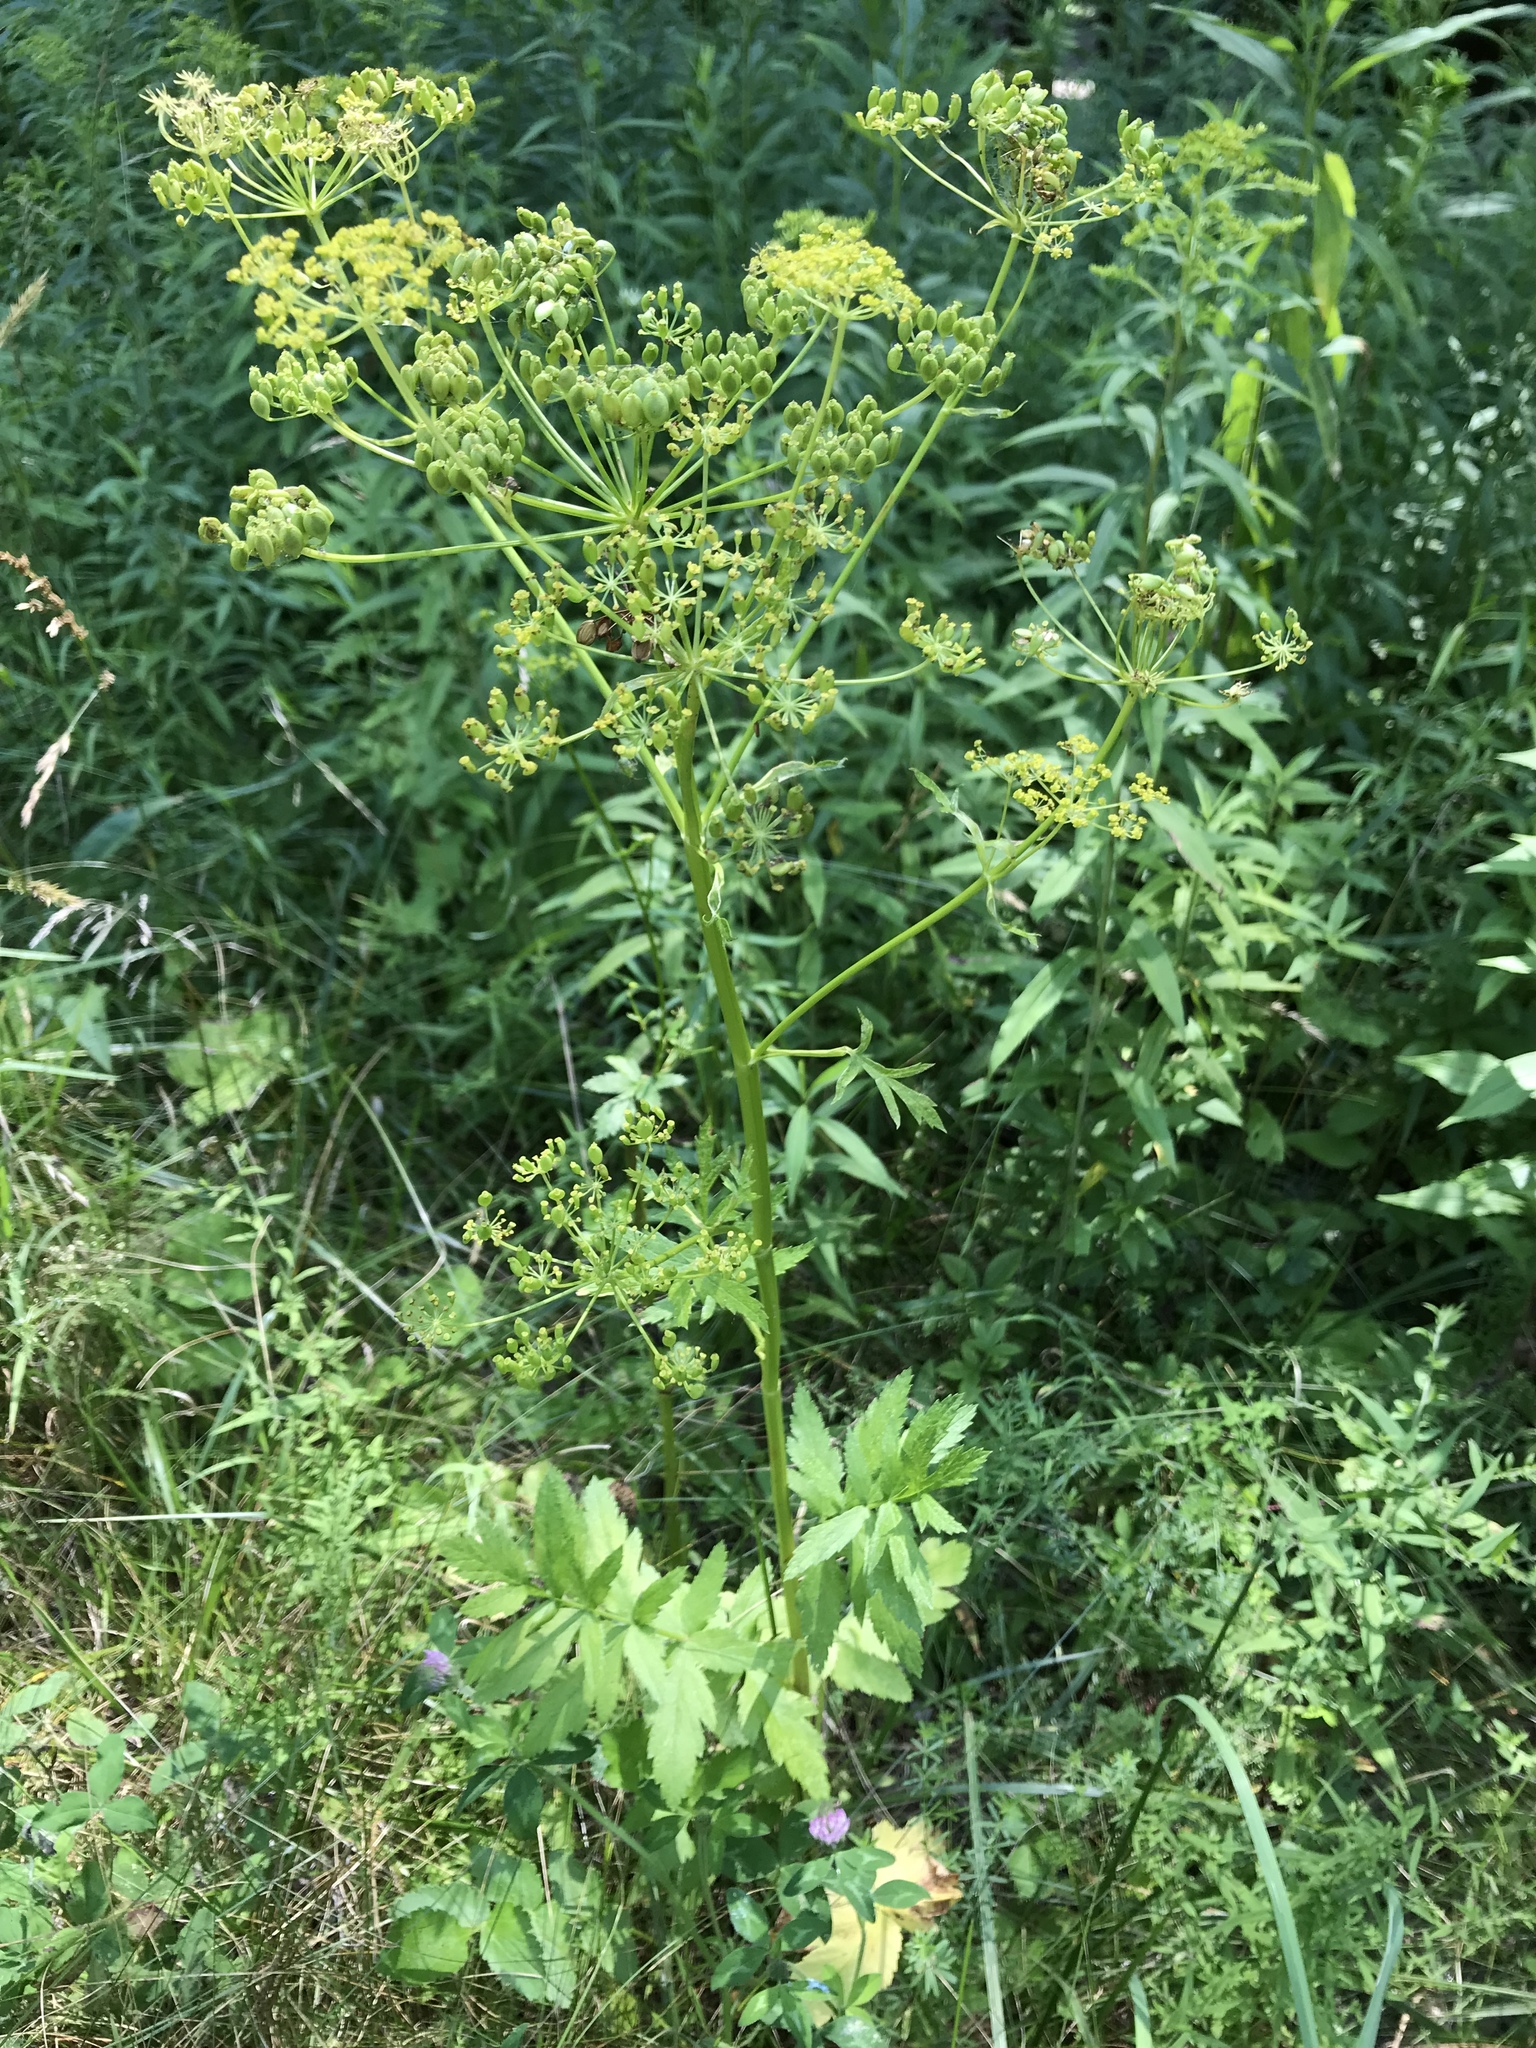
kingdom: Plantae
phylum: Tracheophyta
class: Magnoliopsida
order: Apiales
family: Apiaceae
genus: Pastinaca
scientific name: Pastinaca sativa
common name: Wild parsnip
